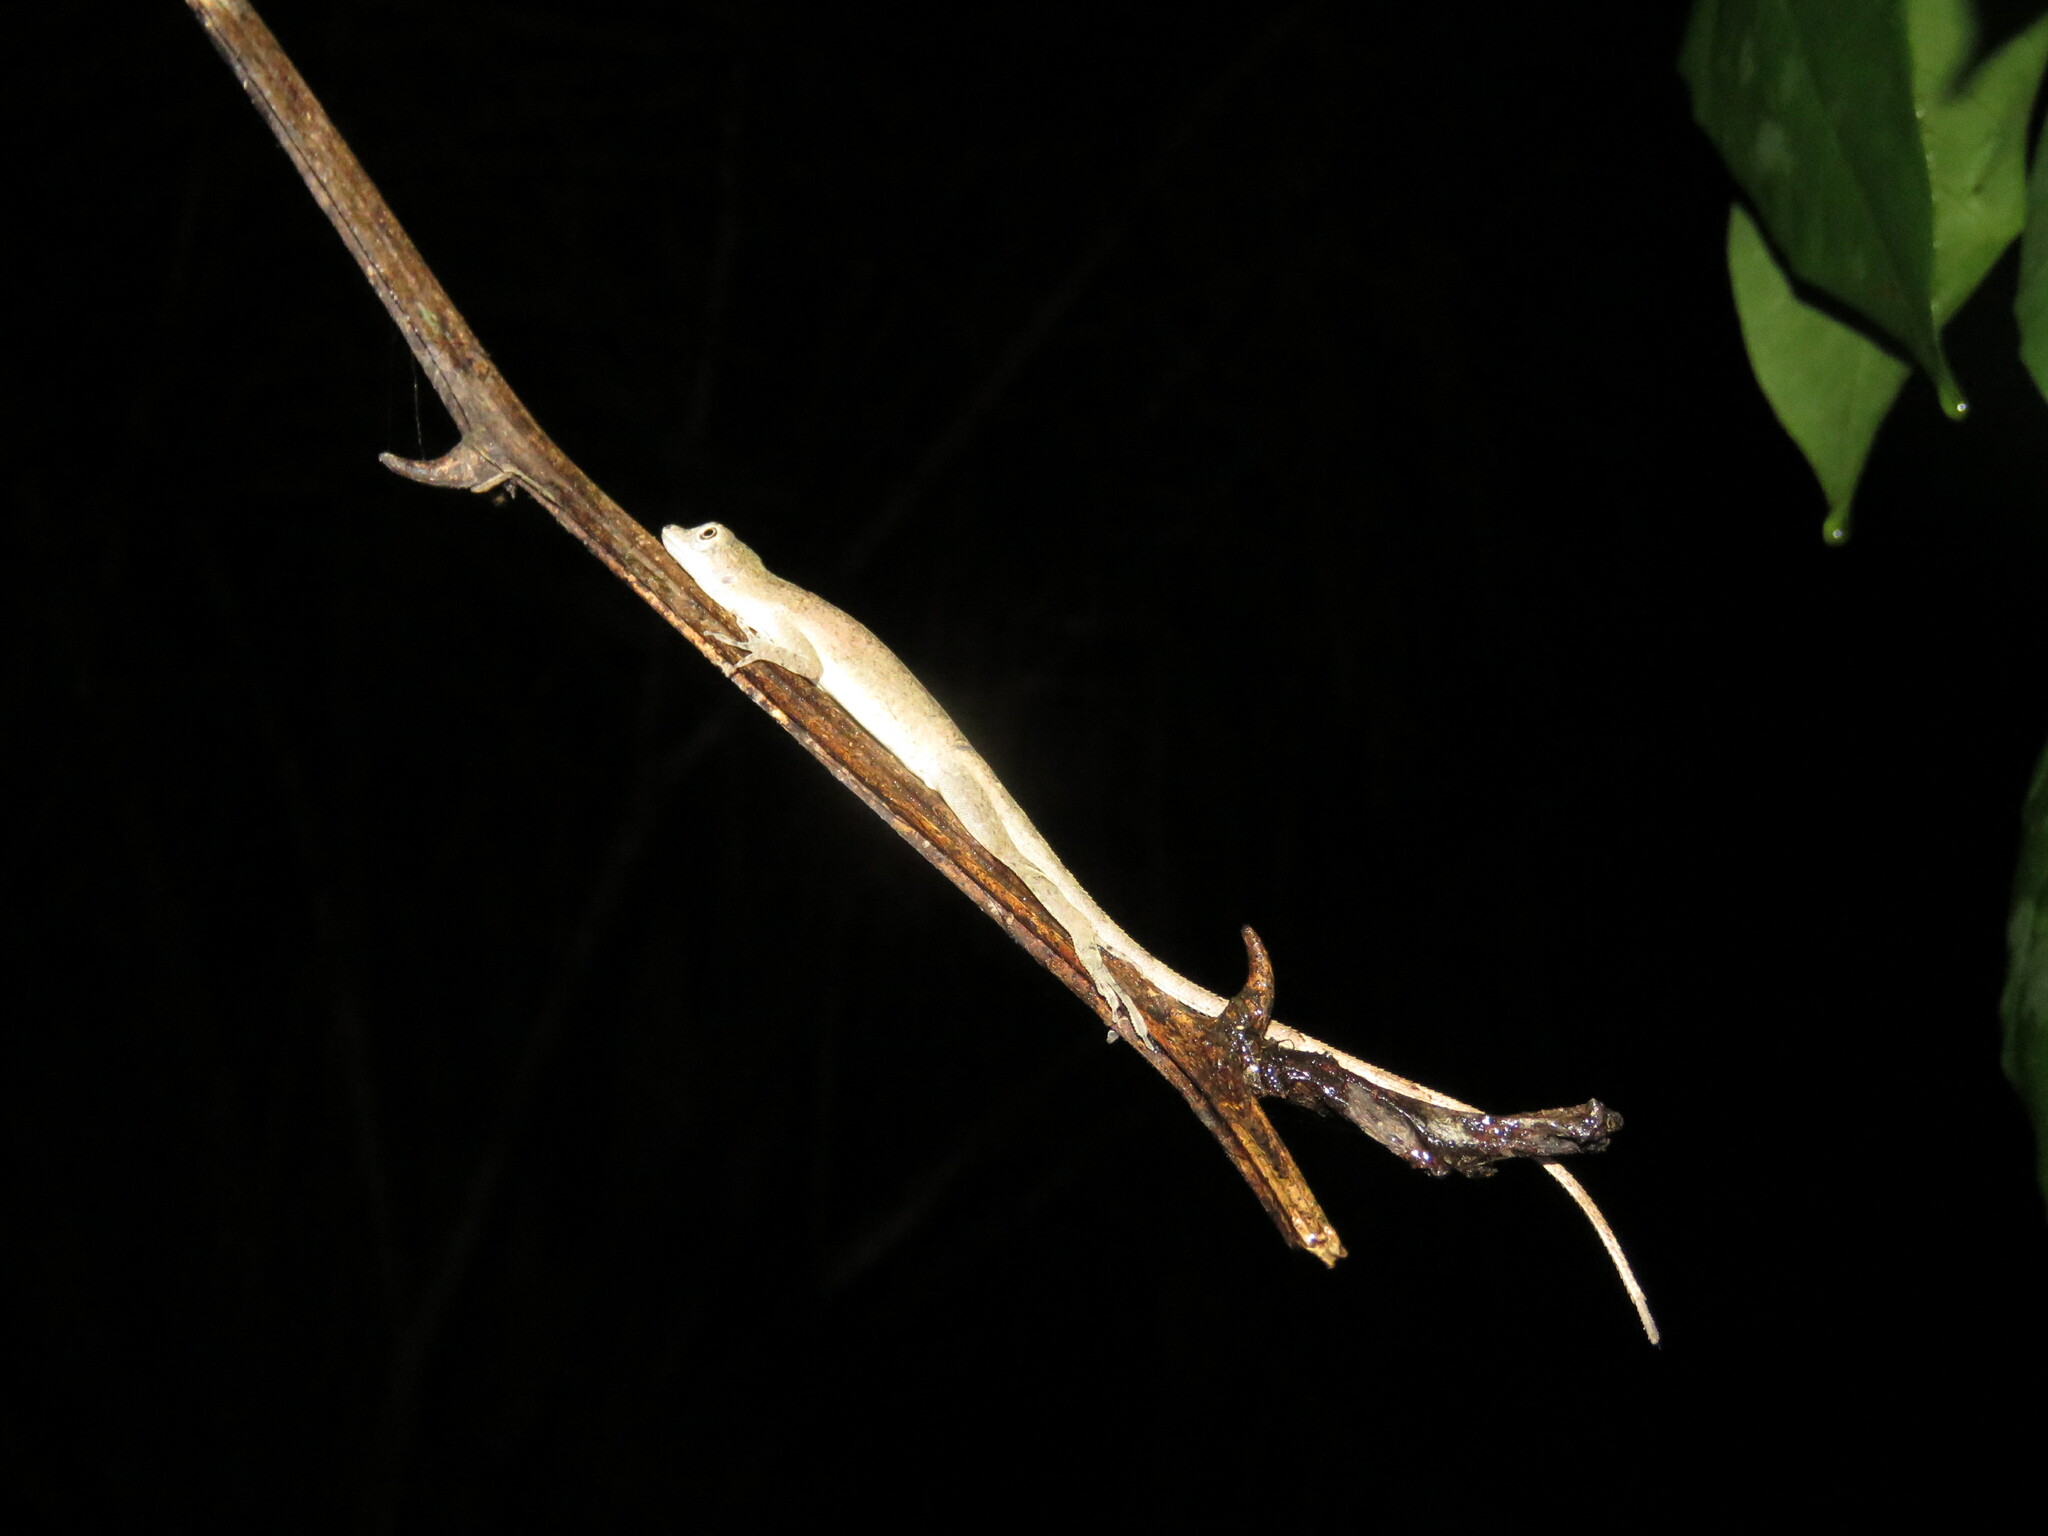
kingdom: Animalia
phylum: Chordata
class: Squamata
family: Dactyloidae
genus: Anolis
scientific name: Anolis fuscoauratus
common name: Brown-eared anole
